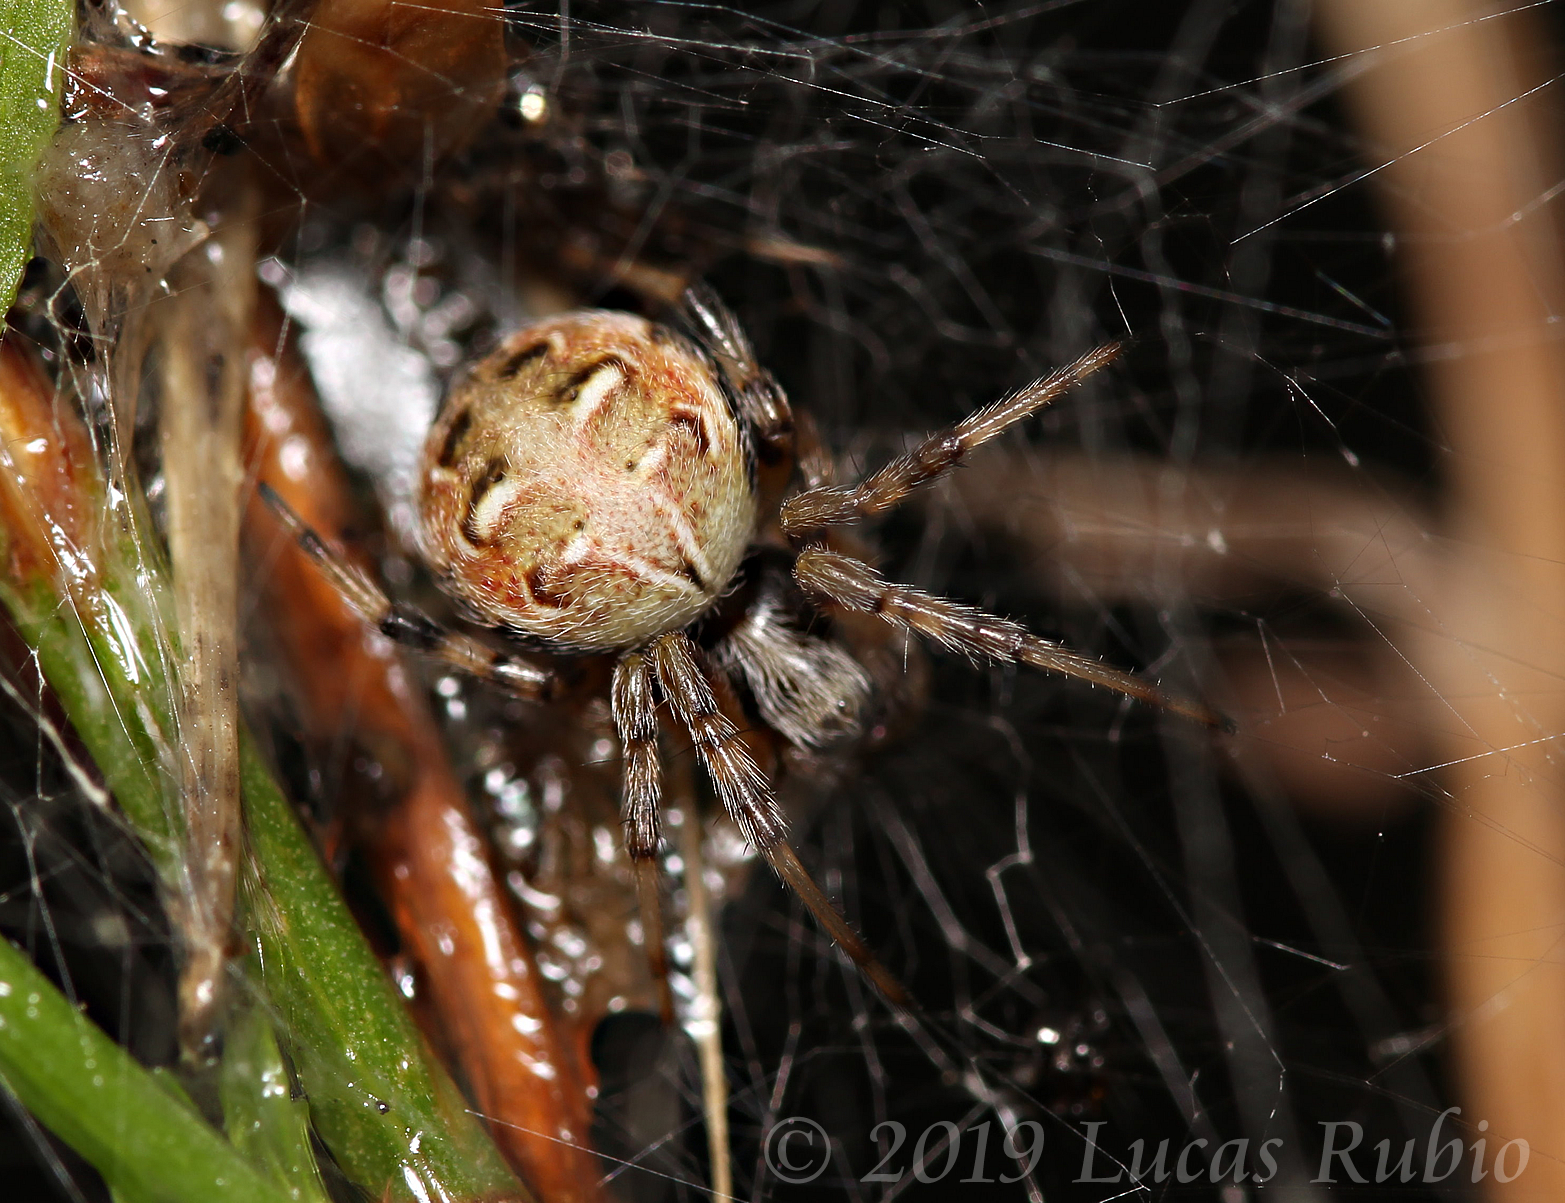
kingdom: Animalia
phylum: Arthropoda
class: Arachnida
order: Araneae
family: Araneidae
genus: Metepeira
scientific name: Metepeira
